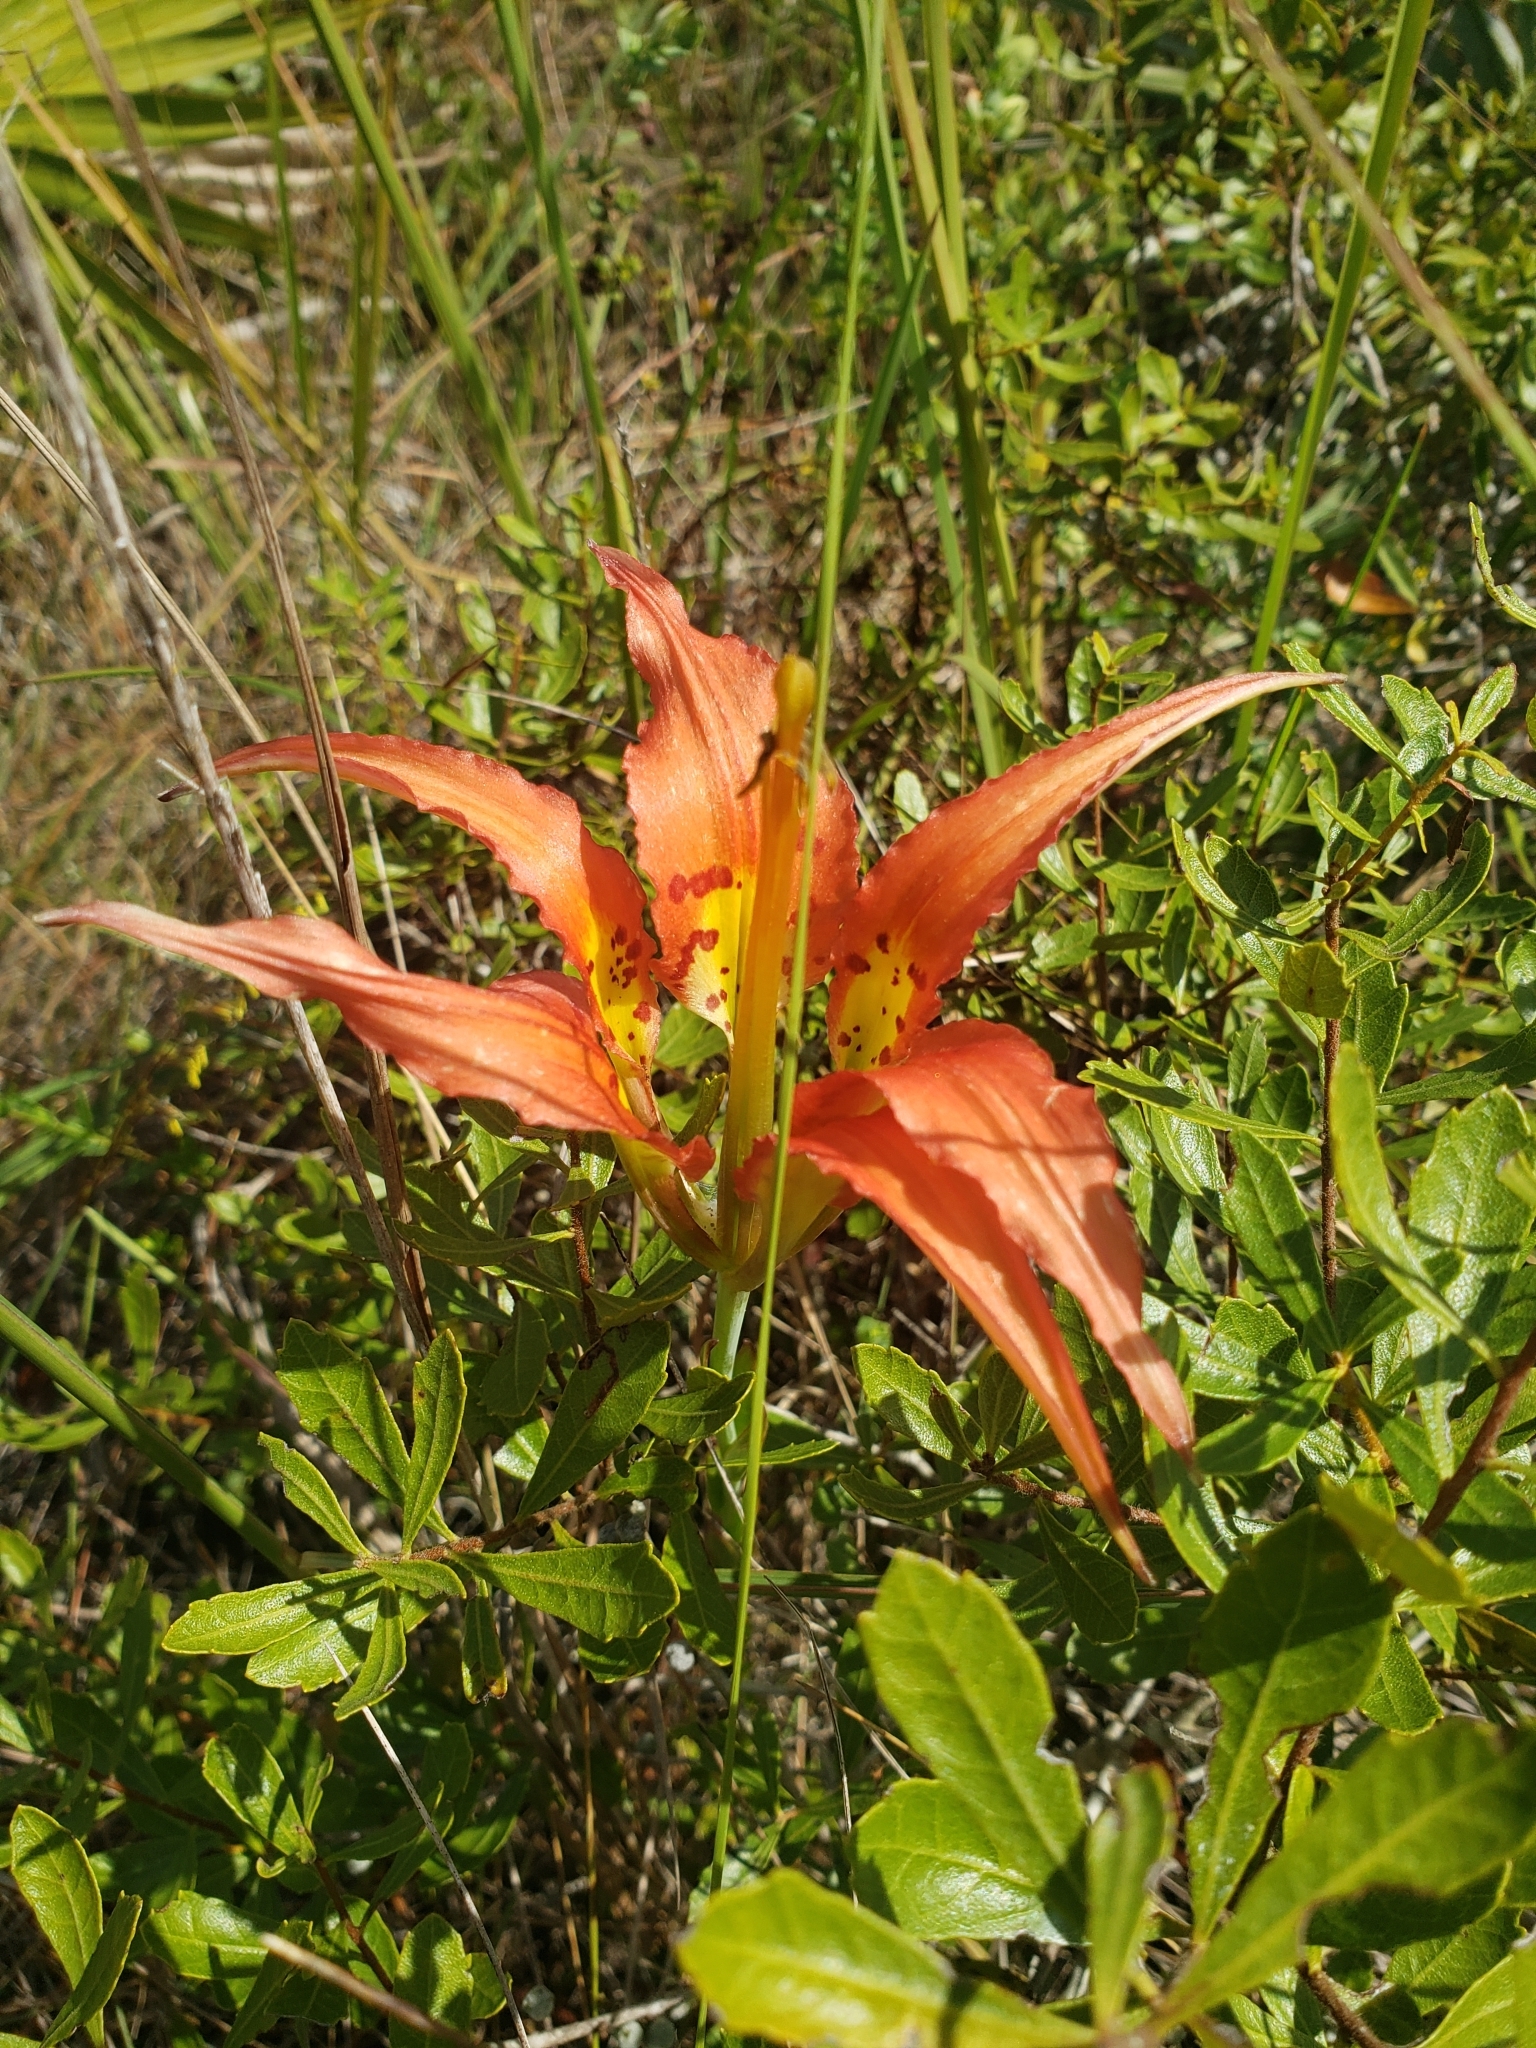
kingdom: Plantae
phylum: Tracheophyta
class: Liliopsida
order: Liliales
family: Liliaceae
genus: Lilium
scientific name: Lilium catesbaei
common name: Catesby's lily
